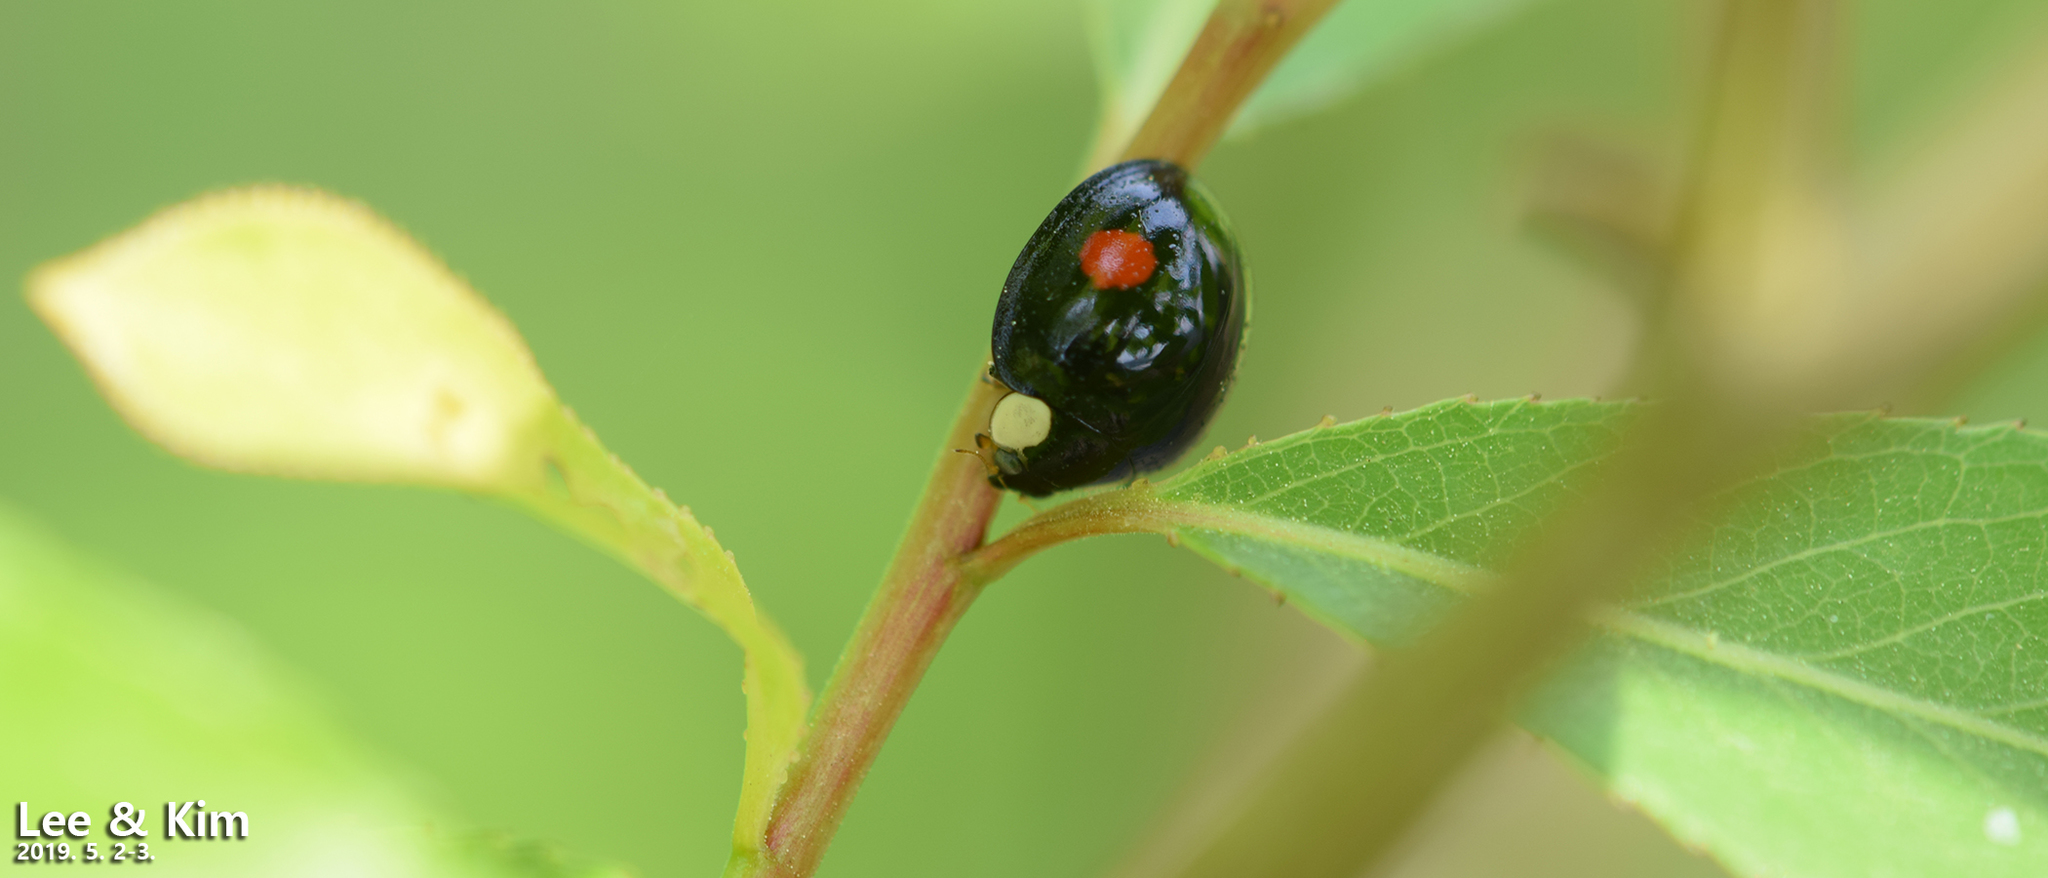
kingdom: Animalia
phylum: Arthropoda
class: Insecta
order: Coleoptera
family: Coccinellidae
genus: Harmonia
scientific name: Harmonia axyridis
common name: Harlequin ladybird
